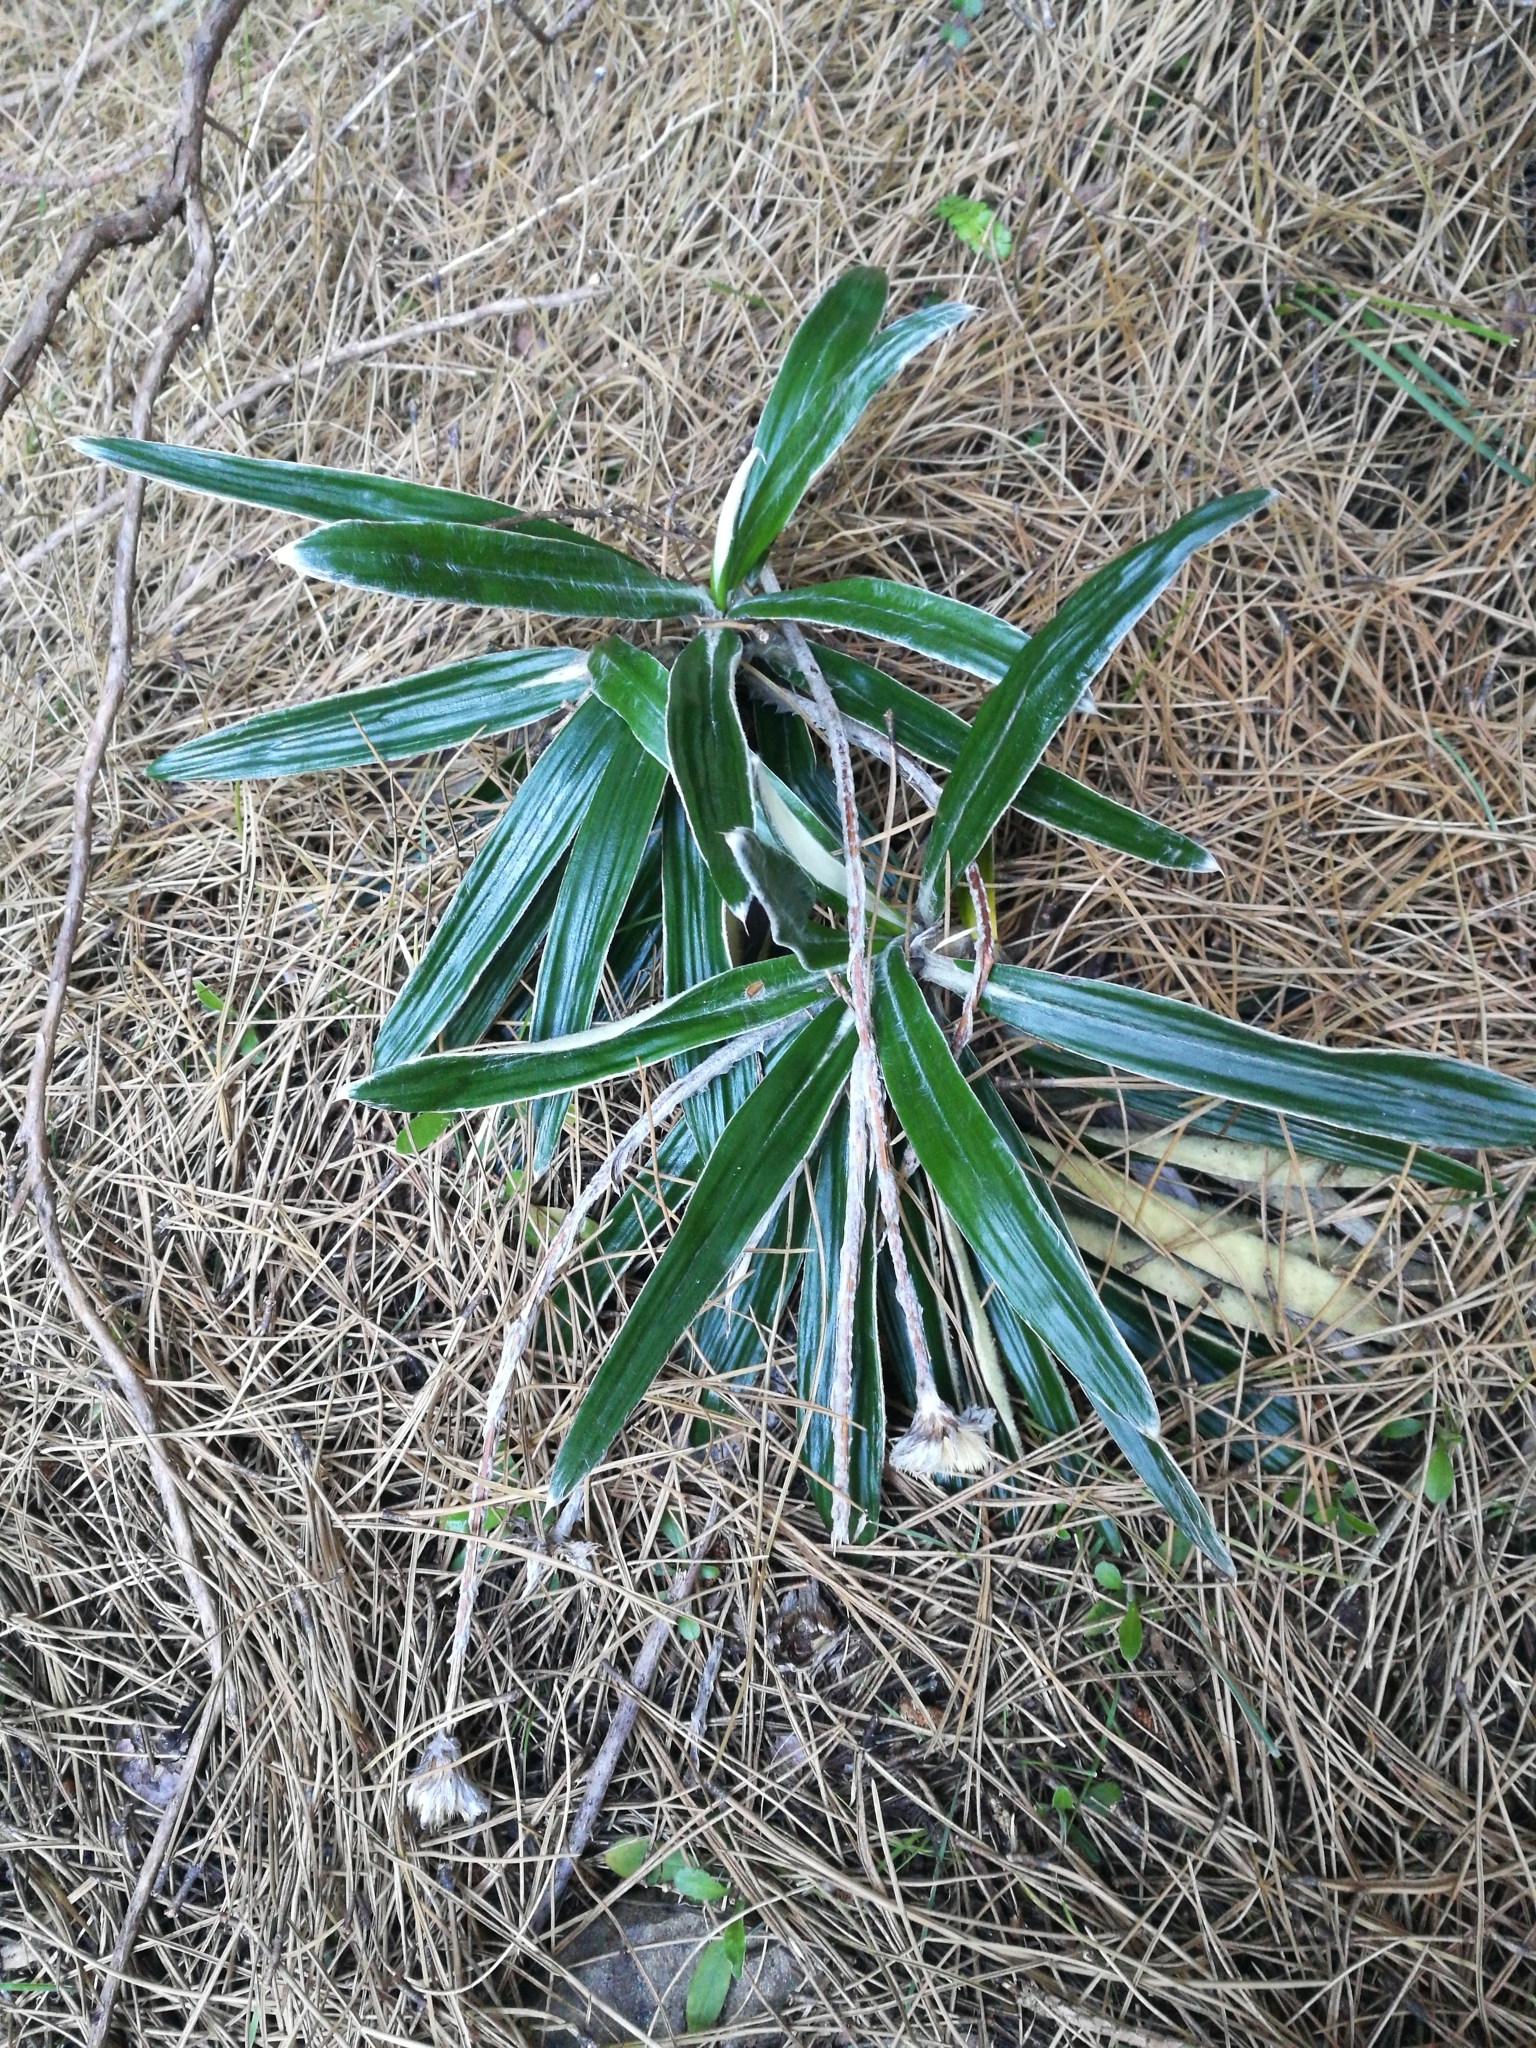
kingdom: Plantae
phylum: Tracheophyta
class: Magnoliopsida
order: Asterales
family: Asteraceae
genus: Celmisia
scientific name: Celmisia spectabilis
